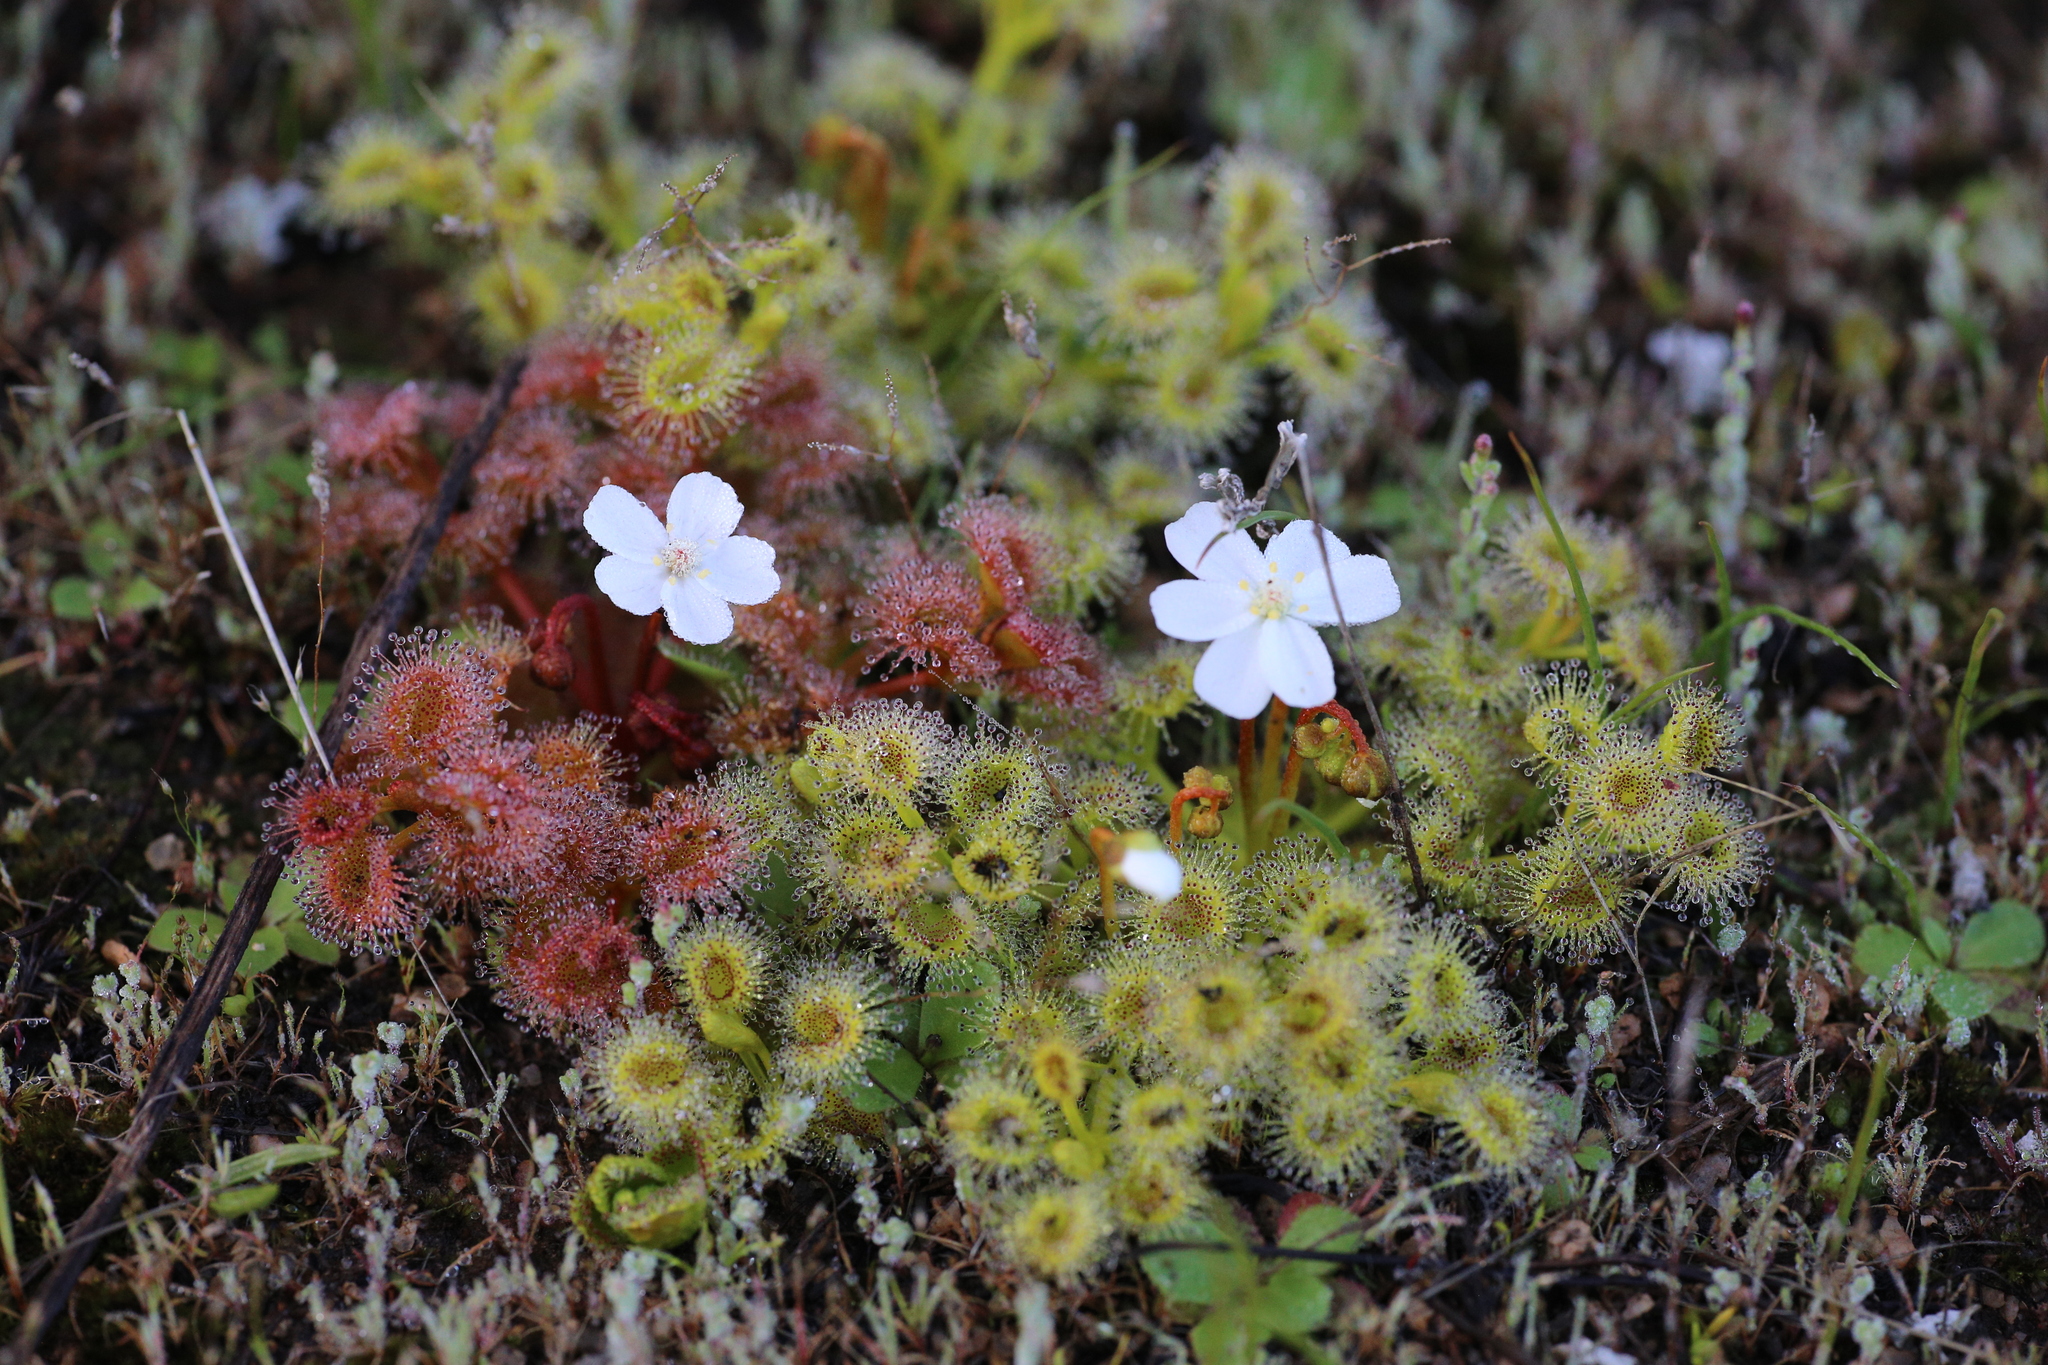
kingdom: Plantae
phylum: Tracheophyta
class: Magnoliopsida
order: Caryophyllales
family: Droseraceae
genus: Drosera
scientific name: Drosera rupicola
